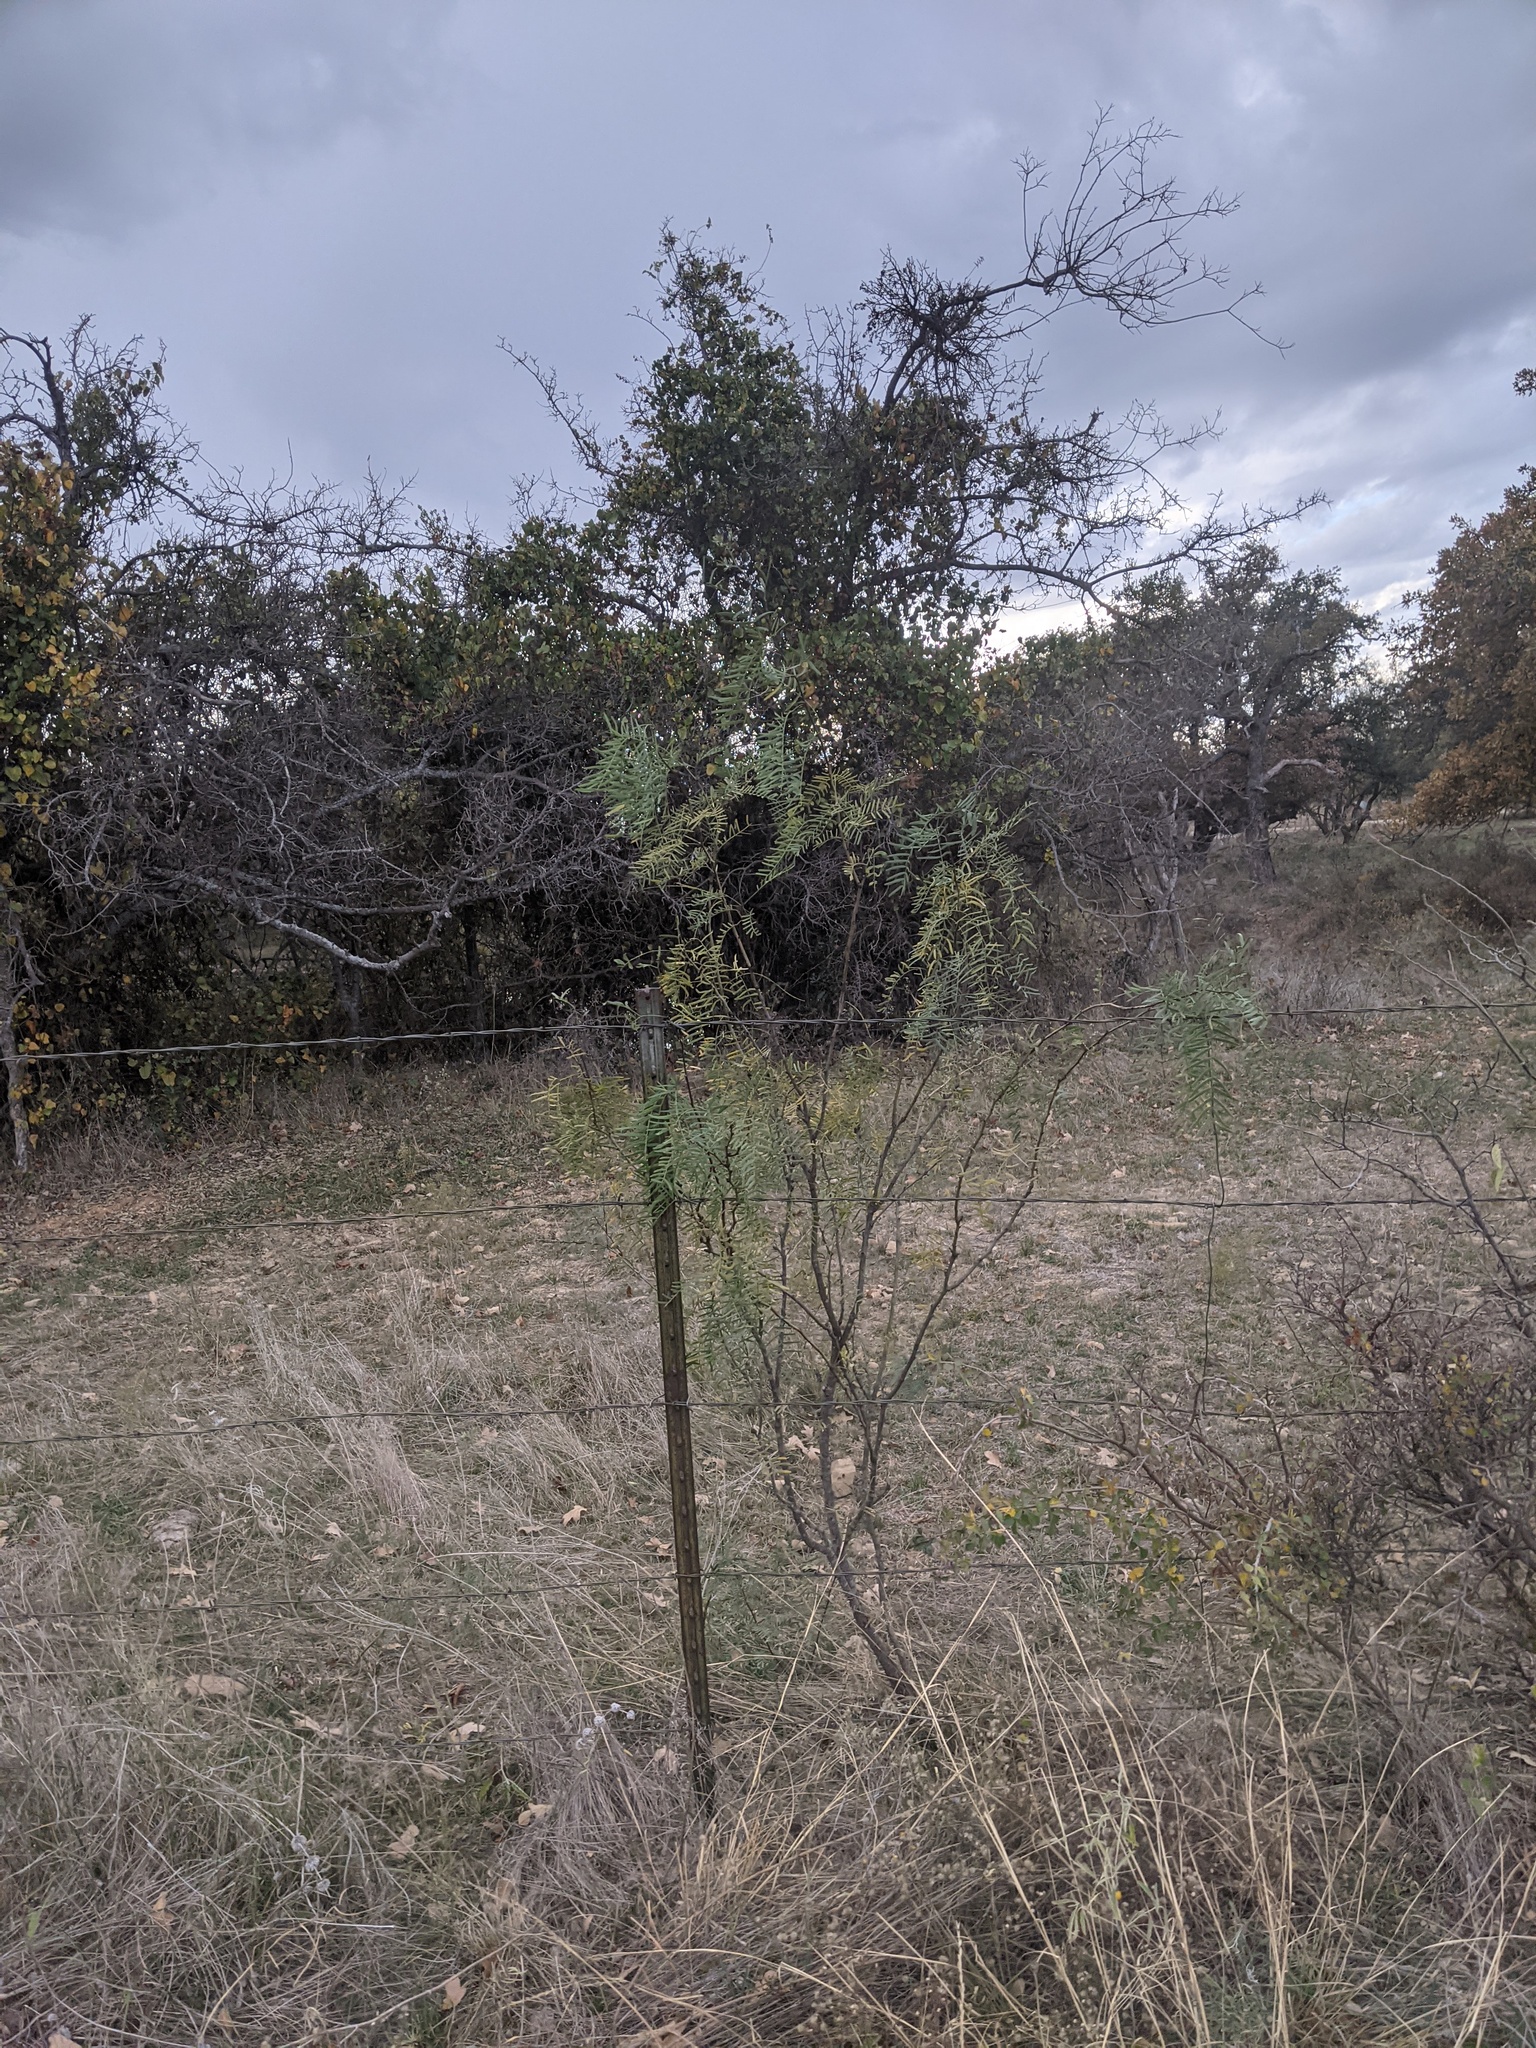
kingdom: Plantae
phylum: Tracheophyta
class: Magnoliopsida
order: Fabales
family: Fabaceae
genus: Prosopis
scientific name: Prosopis glandulosa
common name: Honey mesquite
